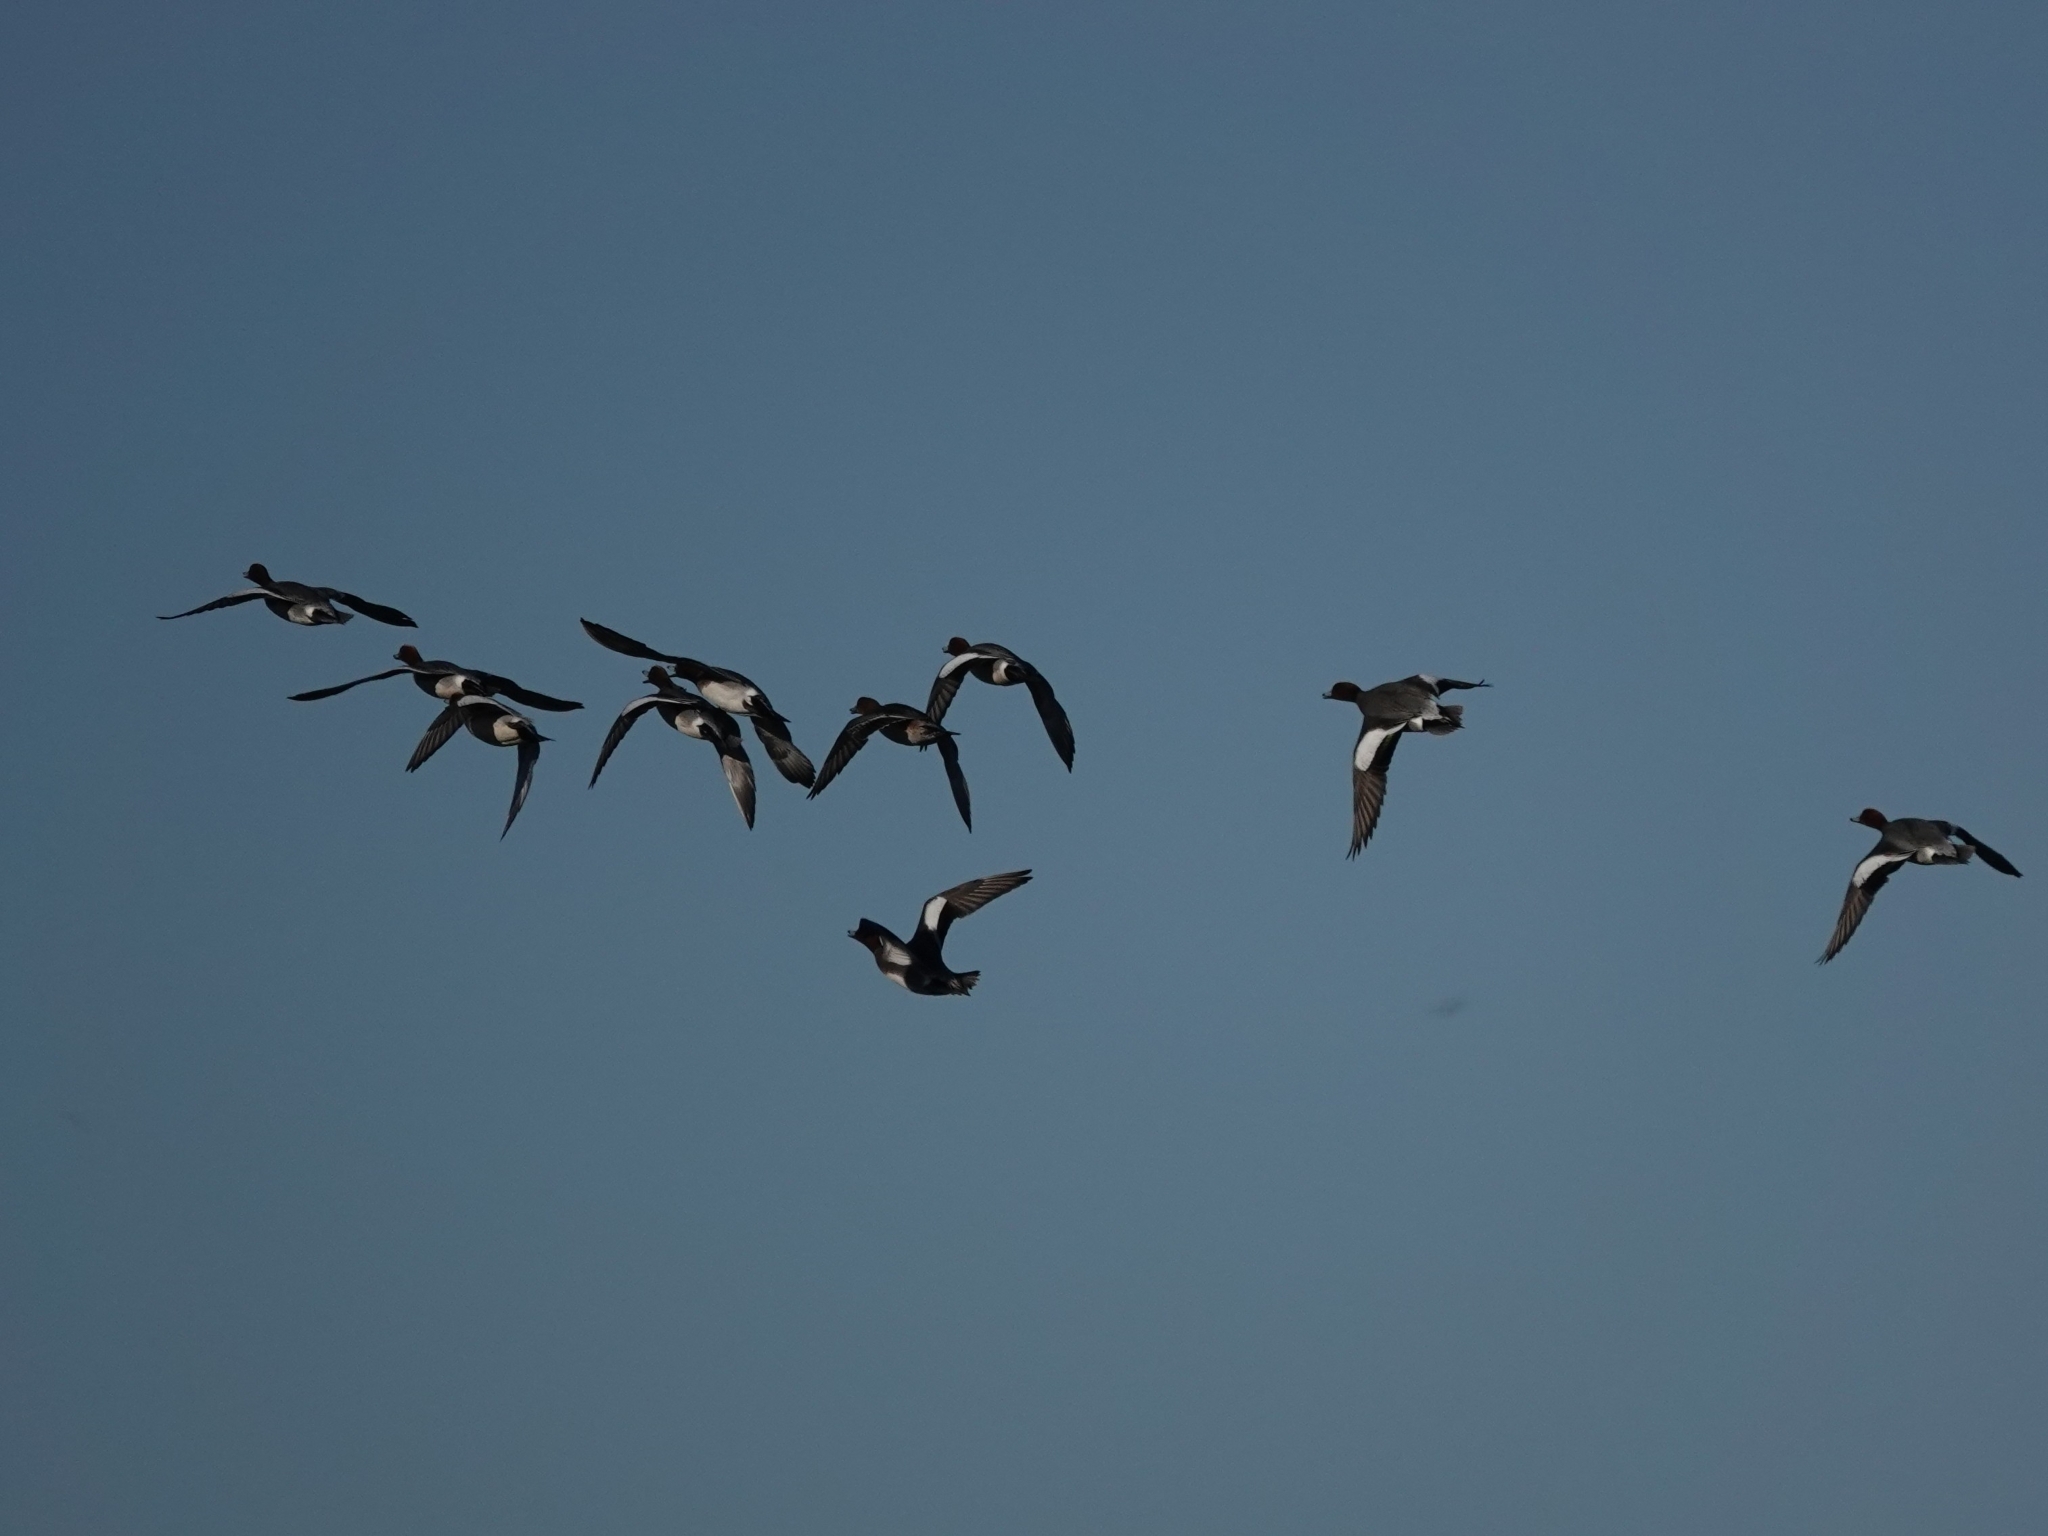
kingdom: Animalia
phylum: Chordata
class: Aves
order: Anseriformes
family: Anatidae
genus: Mareca
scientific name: Mareca penelope
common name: Eurasian wigeon
